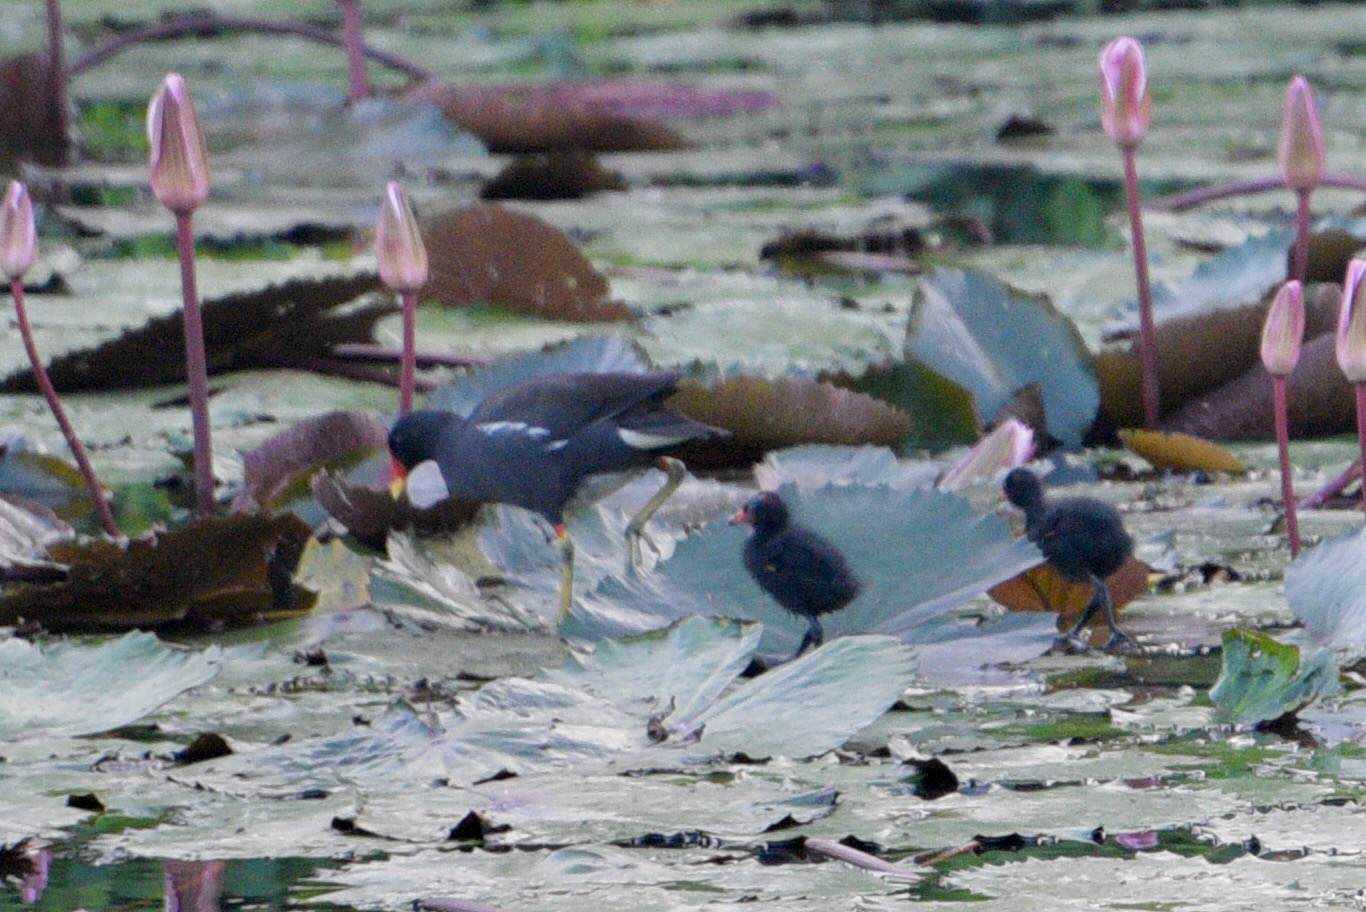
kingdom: Animalia
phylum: Chordata
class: Aves
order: Gruiformes
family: Rallidae
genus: Gallinula
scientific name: Gallinula chloropus
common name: Common moorhen
